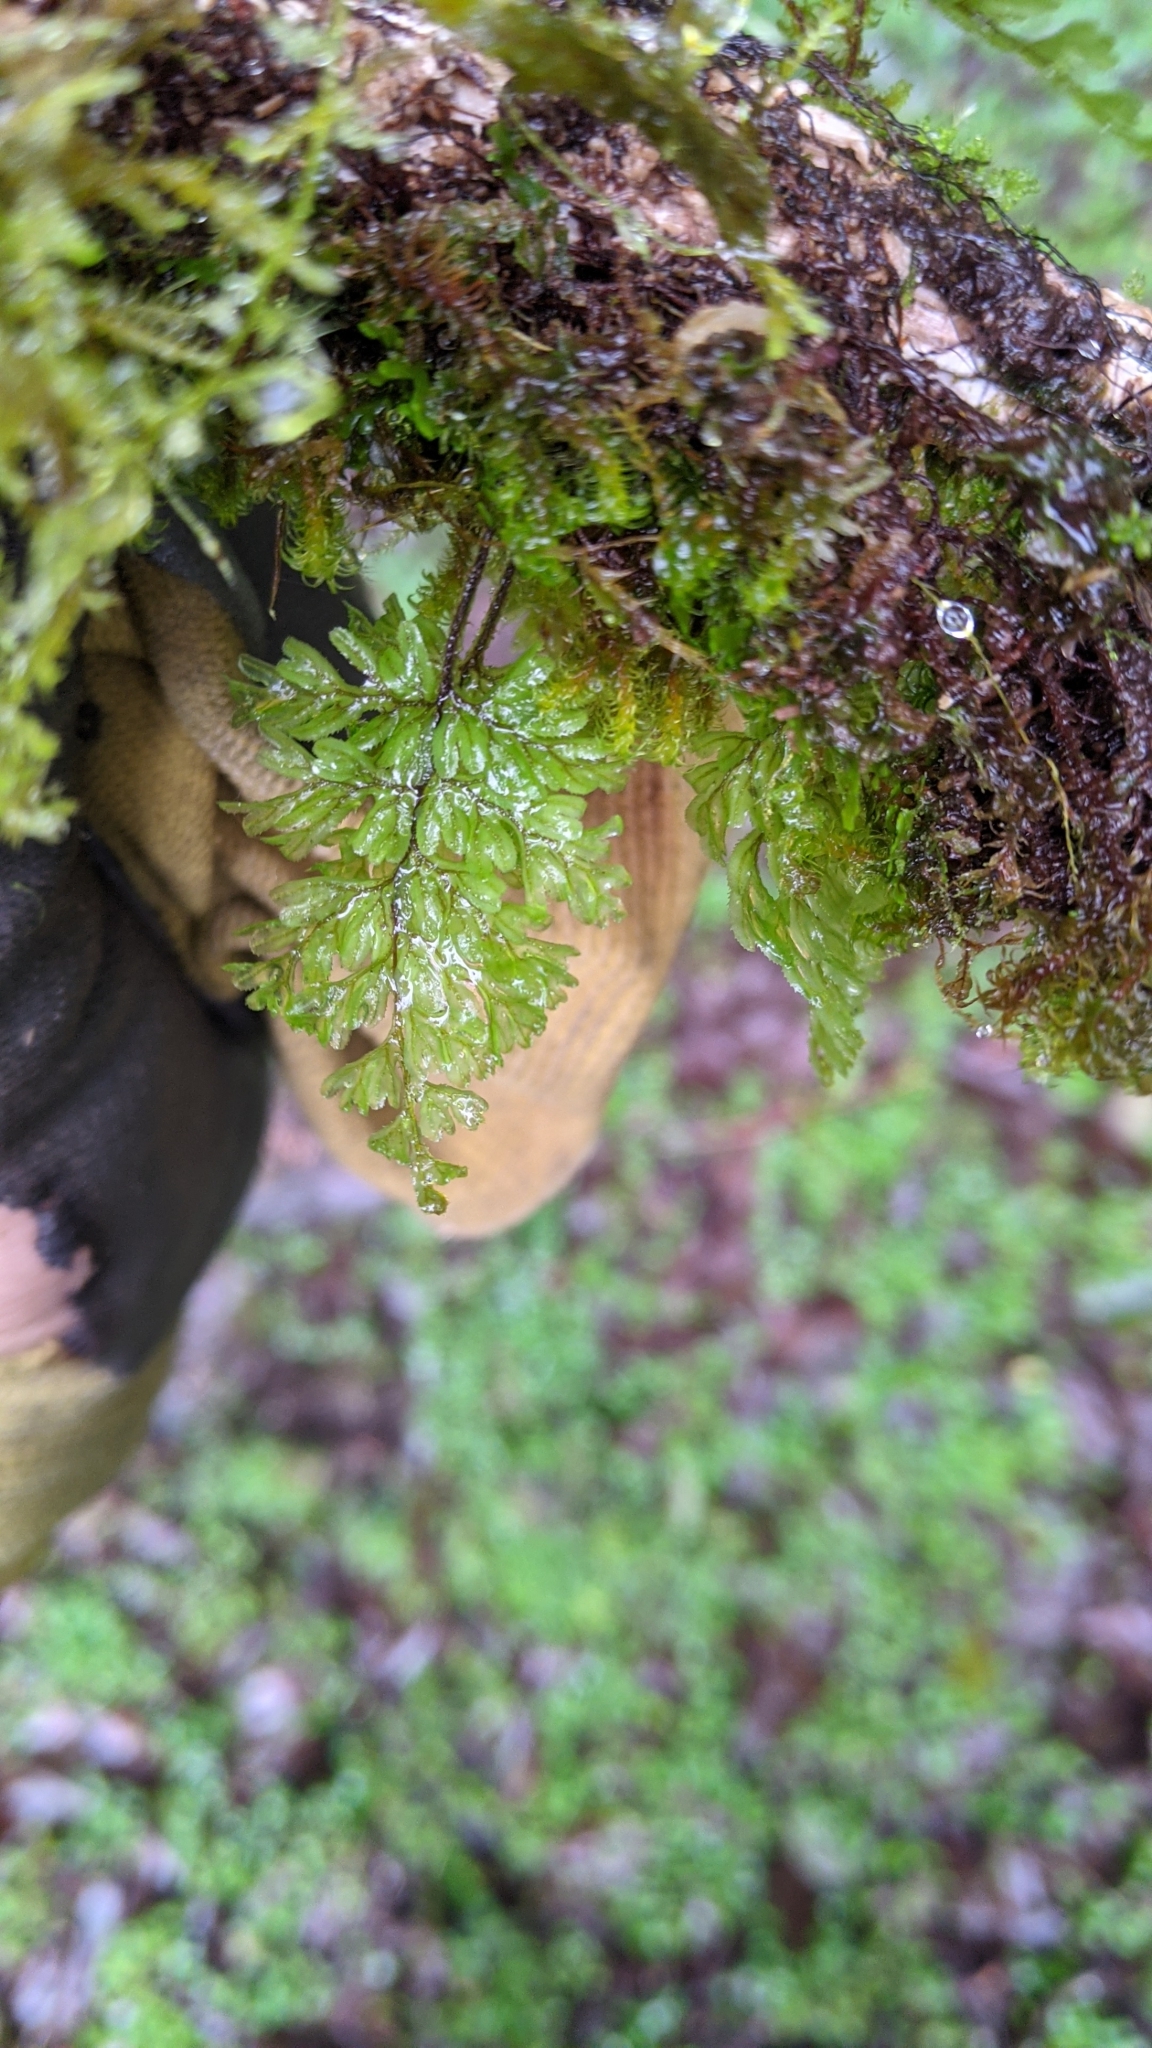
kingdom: Plantae
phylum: Tracheophyta
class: Polypodiopsida
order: Hymenophyllales
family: Hymenophyllaceae
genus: Hymenophyllum
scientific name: Hymenophyllum okadae
